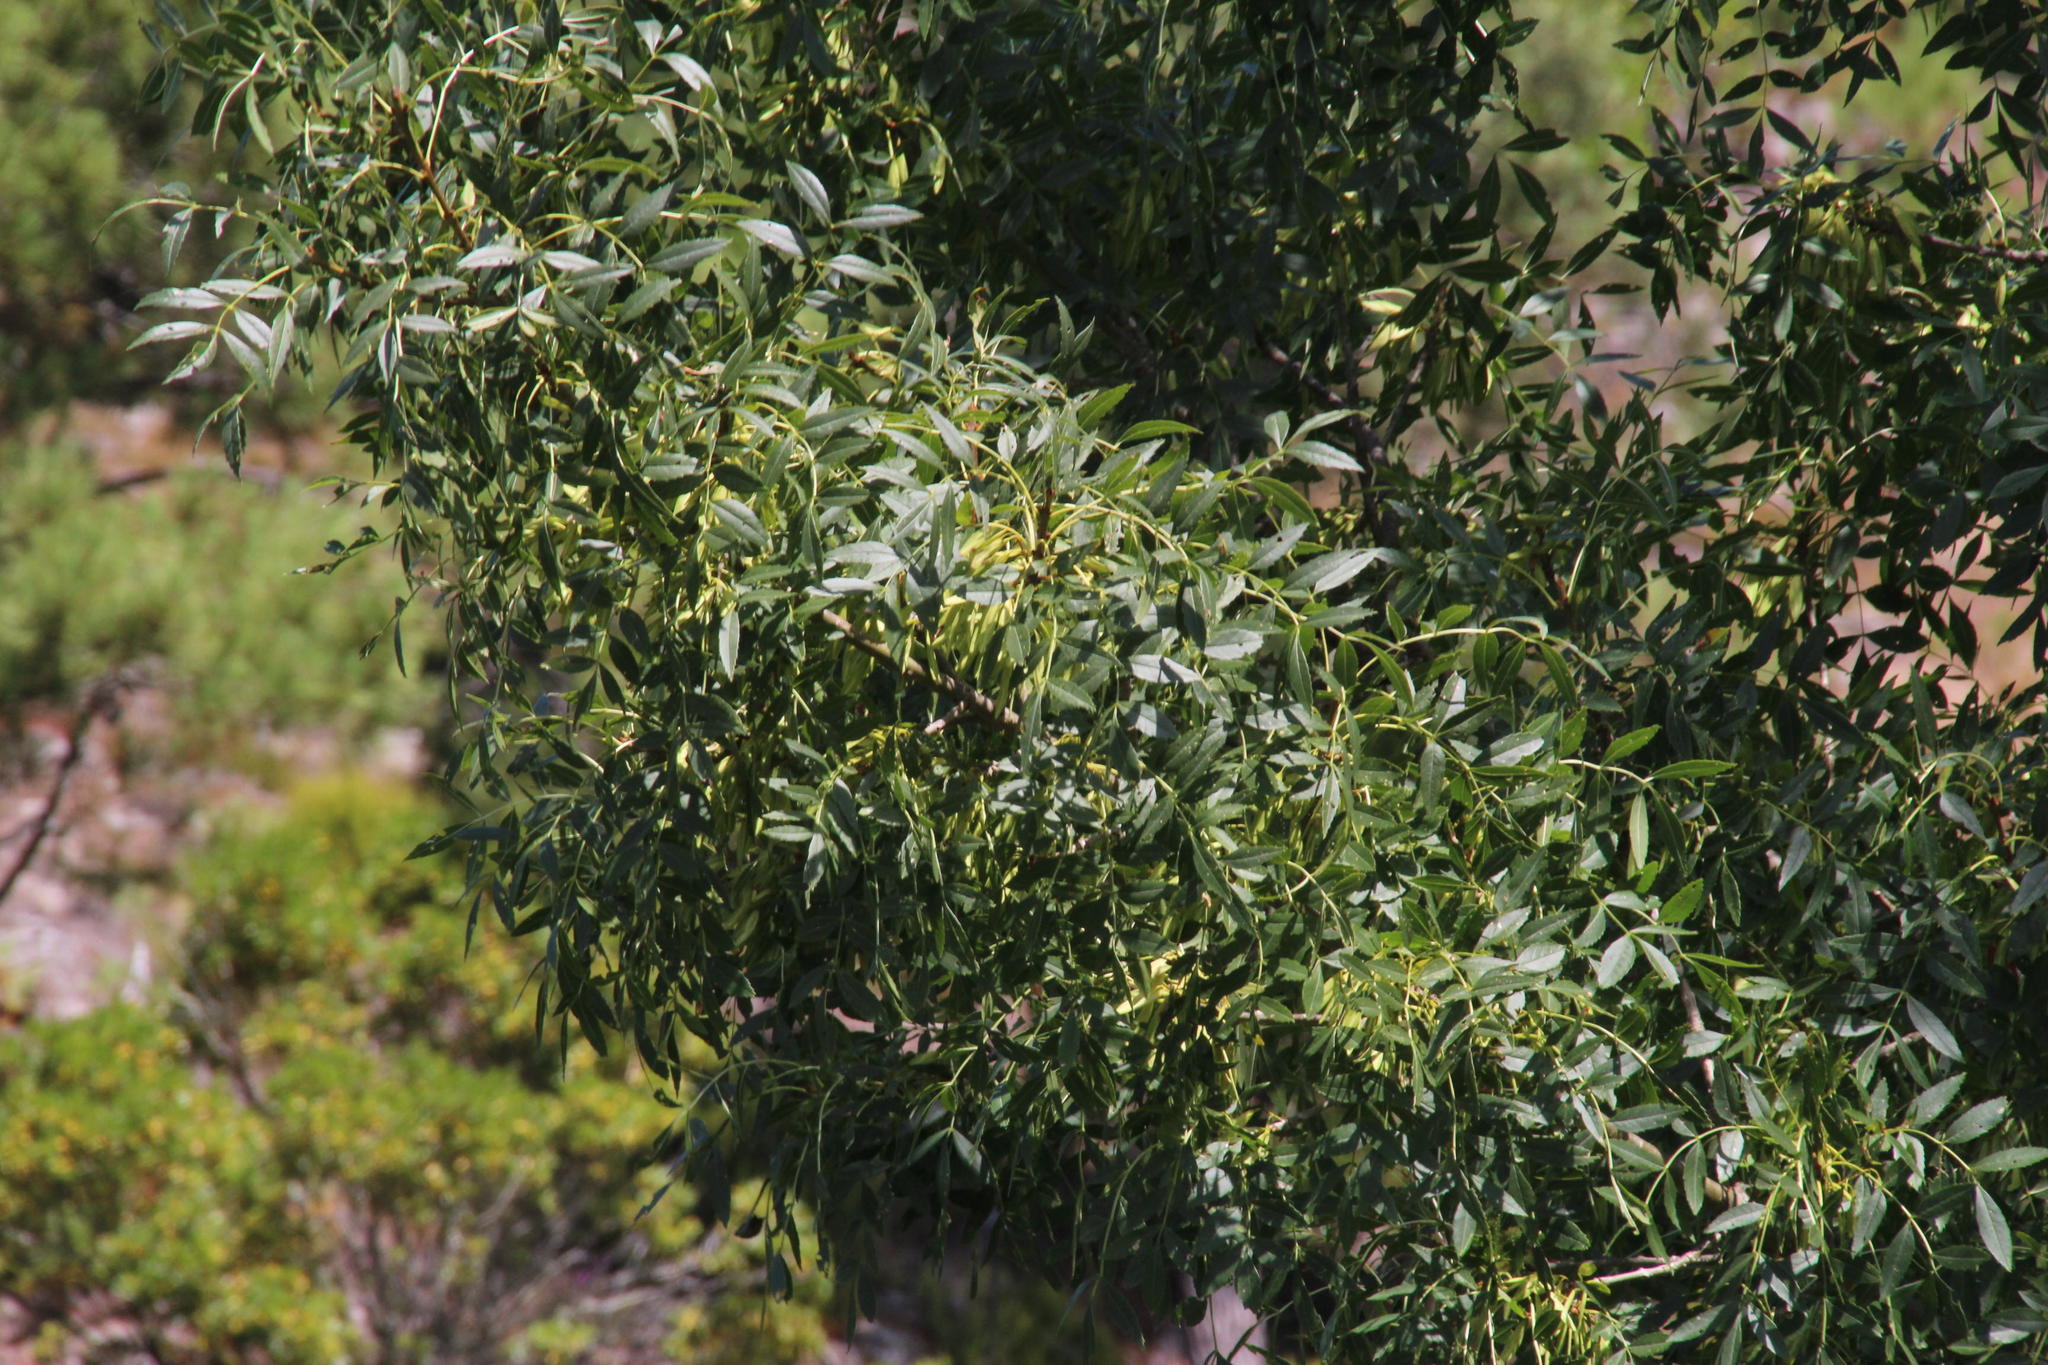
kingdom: Plantae
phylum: Tracheophyta
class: Magnoliopsida
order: Lamiales
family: Oleaceae
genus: Fraxinus
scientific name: Fraxinus angustifolia
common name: Narrow-leafed ash
